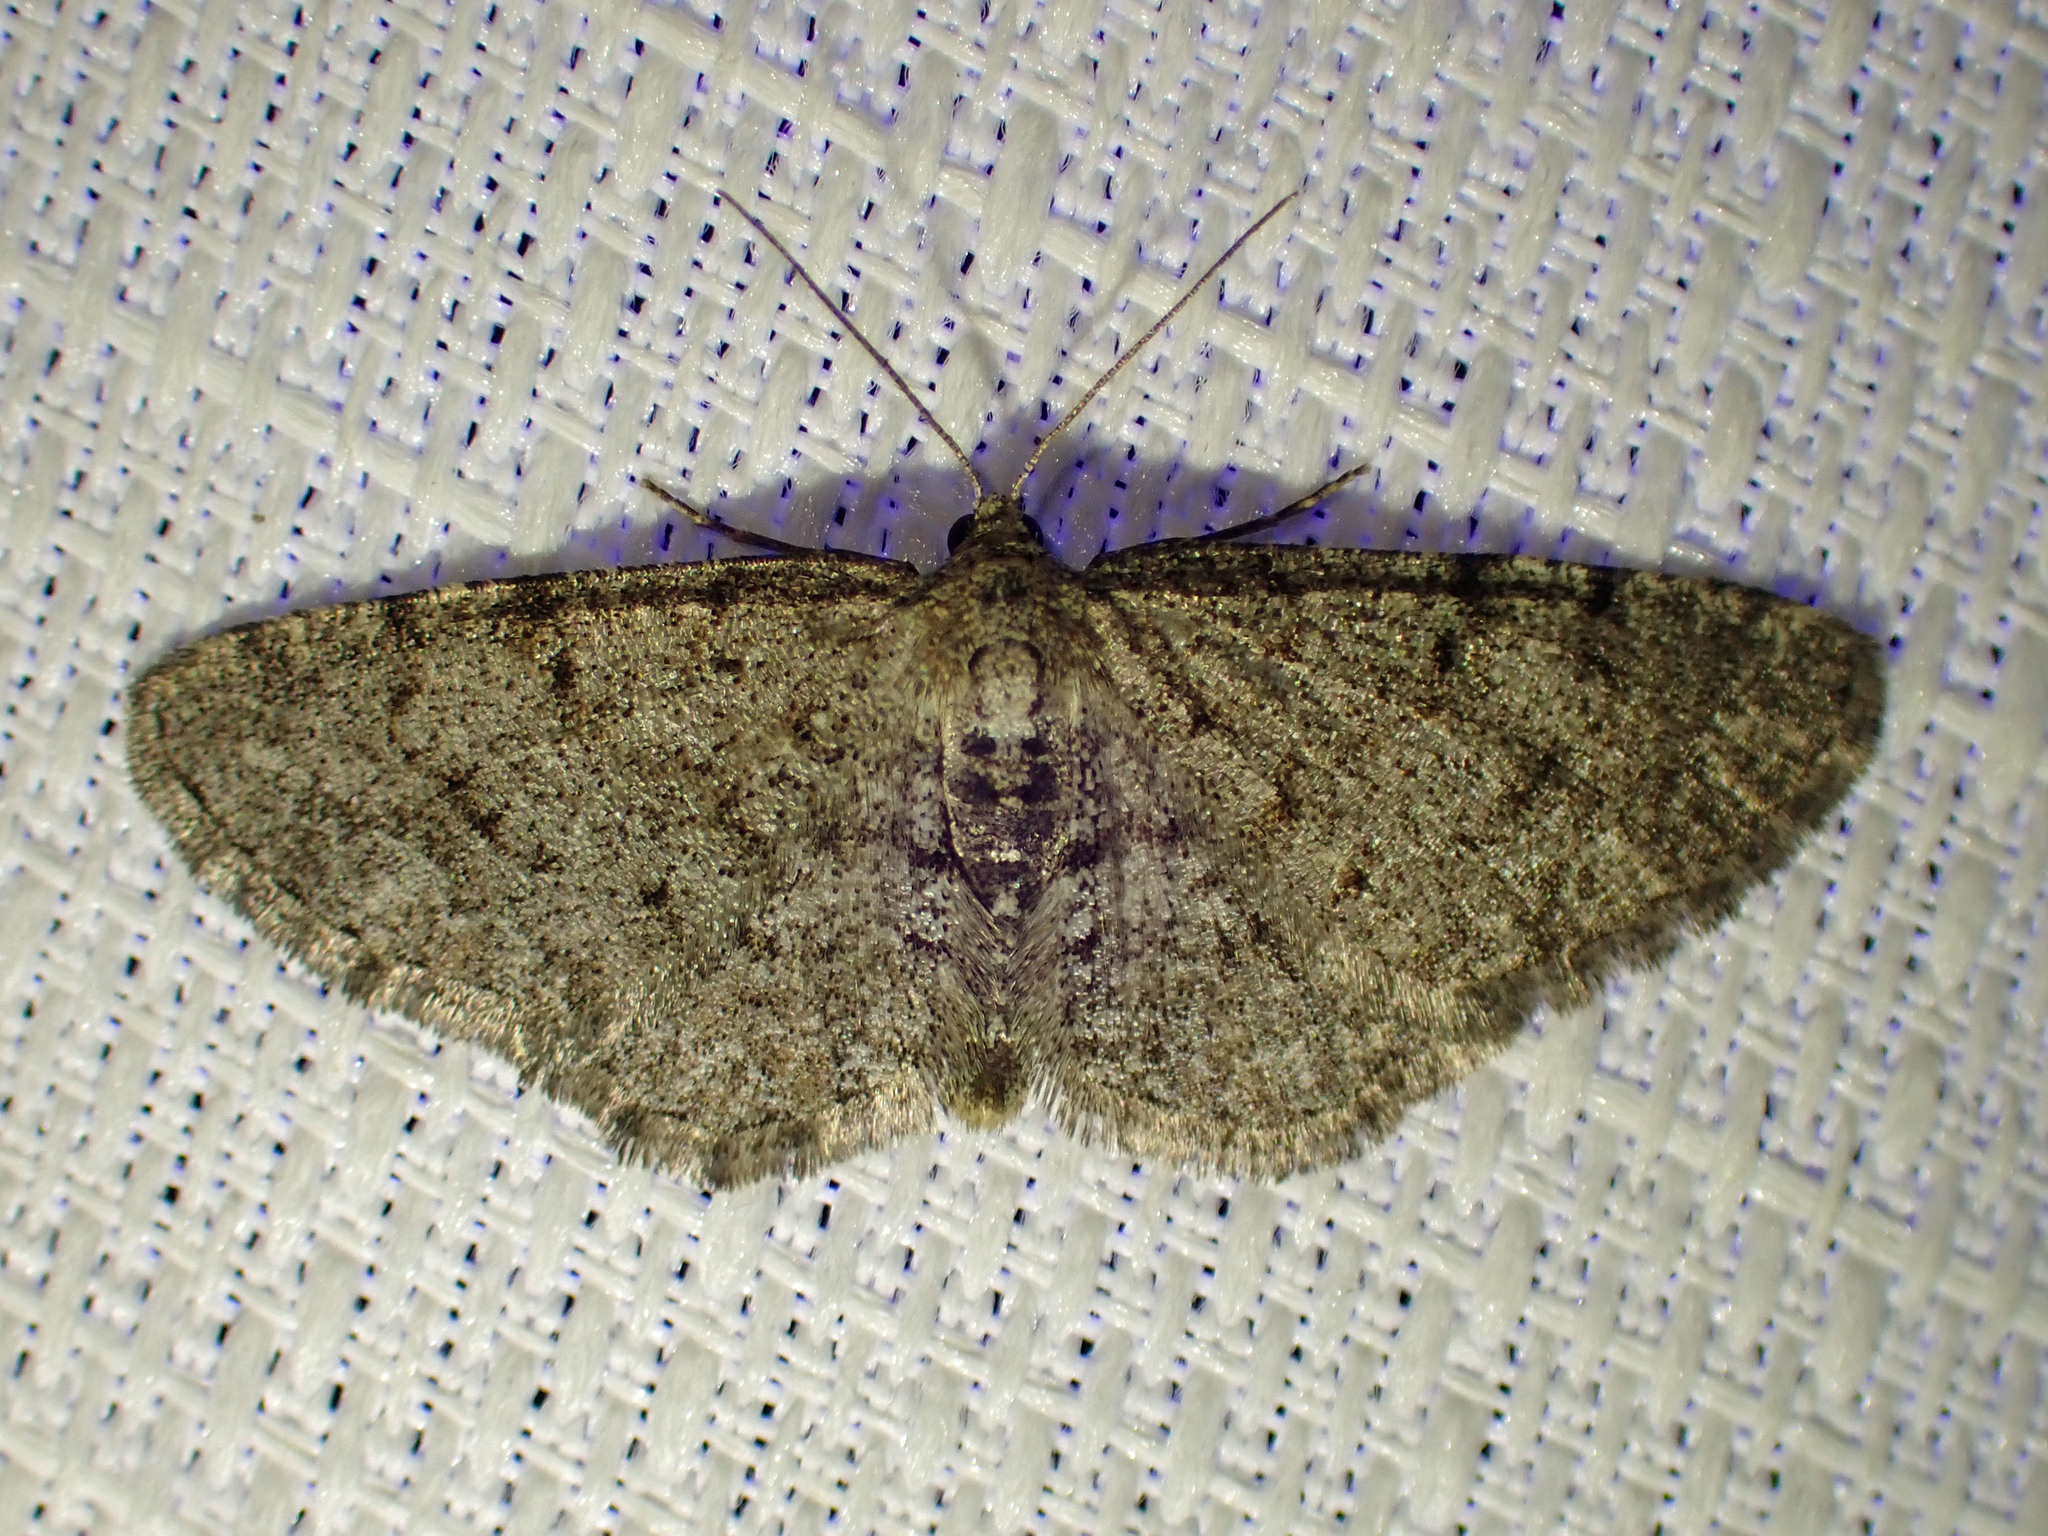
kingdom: Animalia
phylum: Arthropoda
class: Insecta
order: Lepidoptera
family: Geometridae
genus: Aethalura
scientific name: Aethalura intertexta
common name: Four-barred gray
